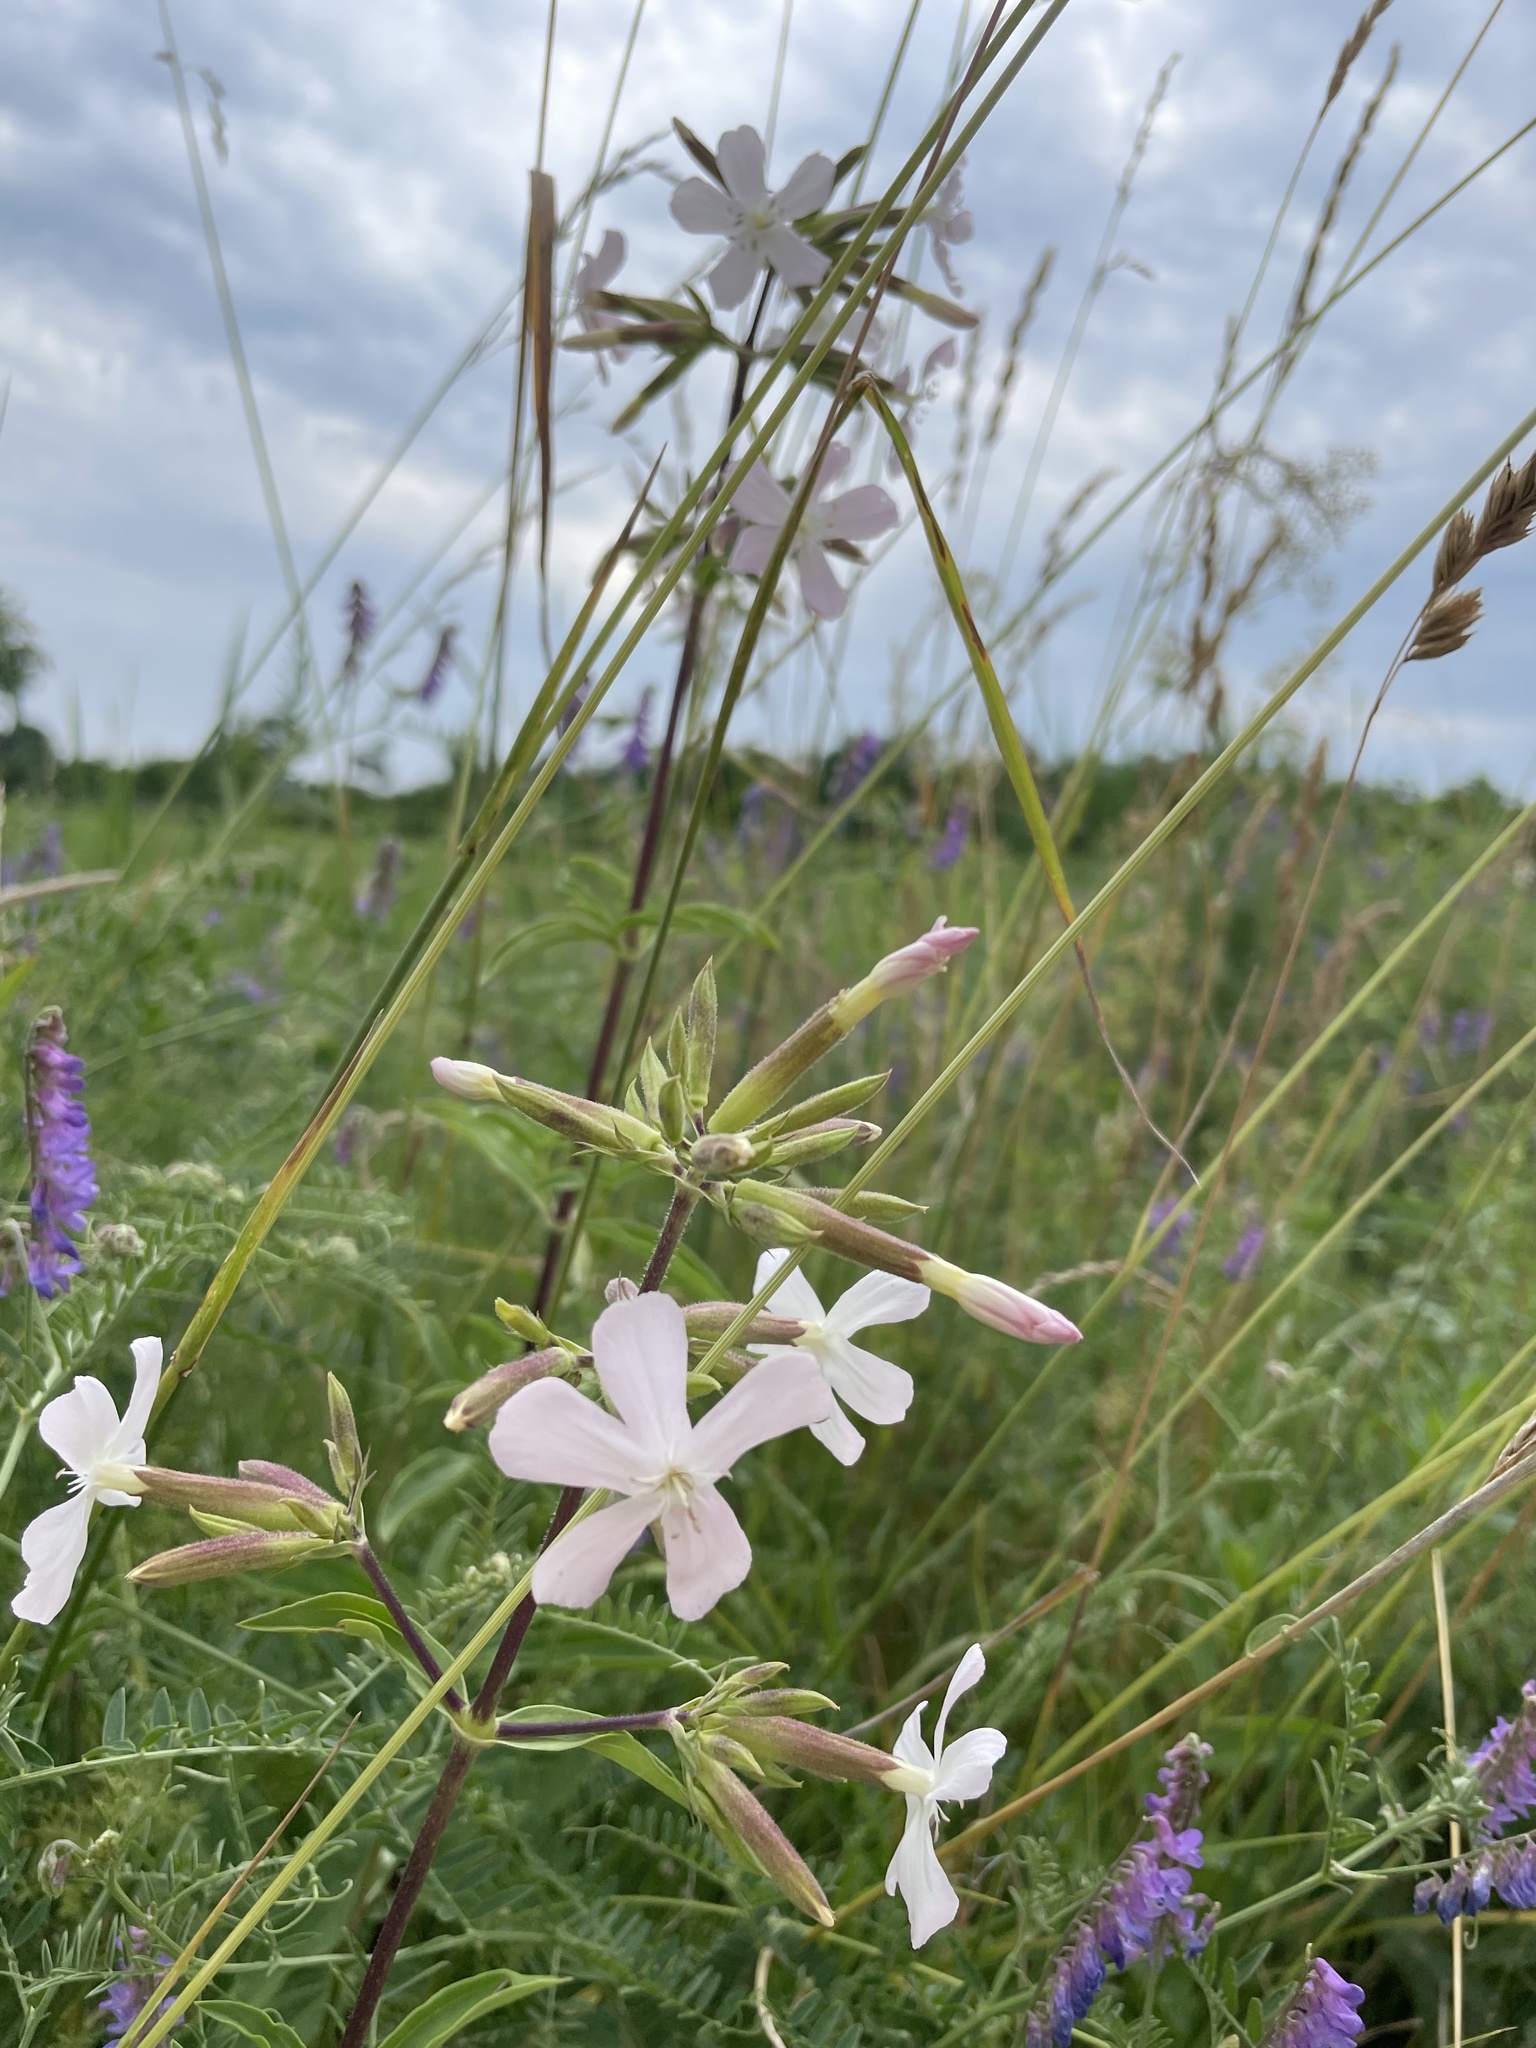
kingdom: Plantae
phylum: Tracheophyta
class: Magnoliopsida
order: Caryophyllales
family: Caryophyllaceae
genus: Saponaria
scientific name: Saponaria officinalis
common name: Soapwort
